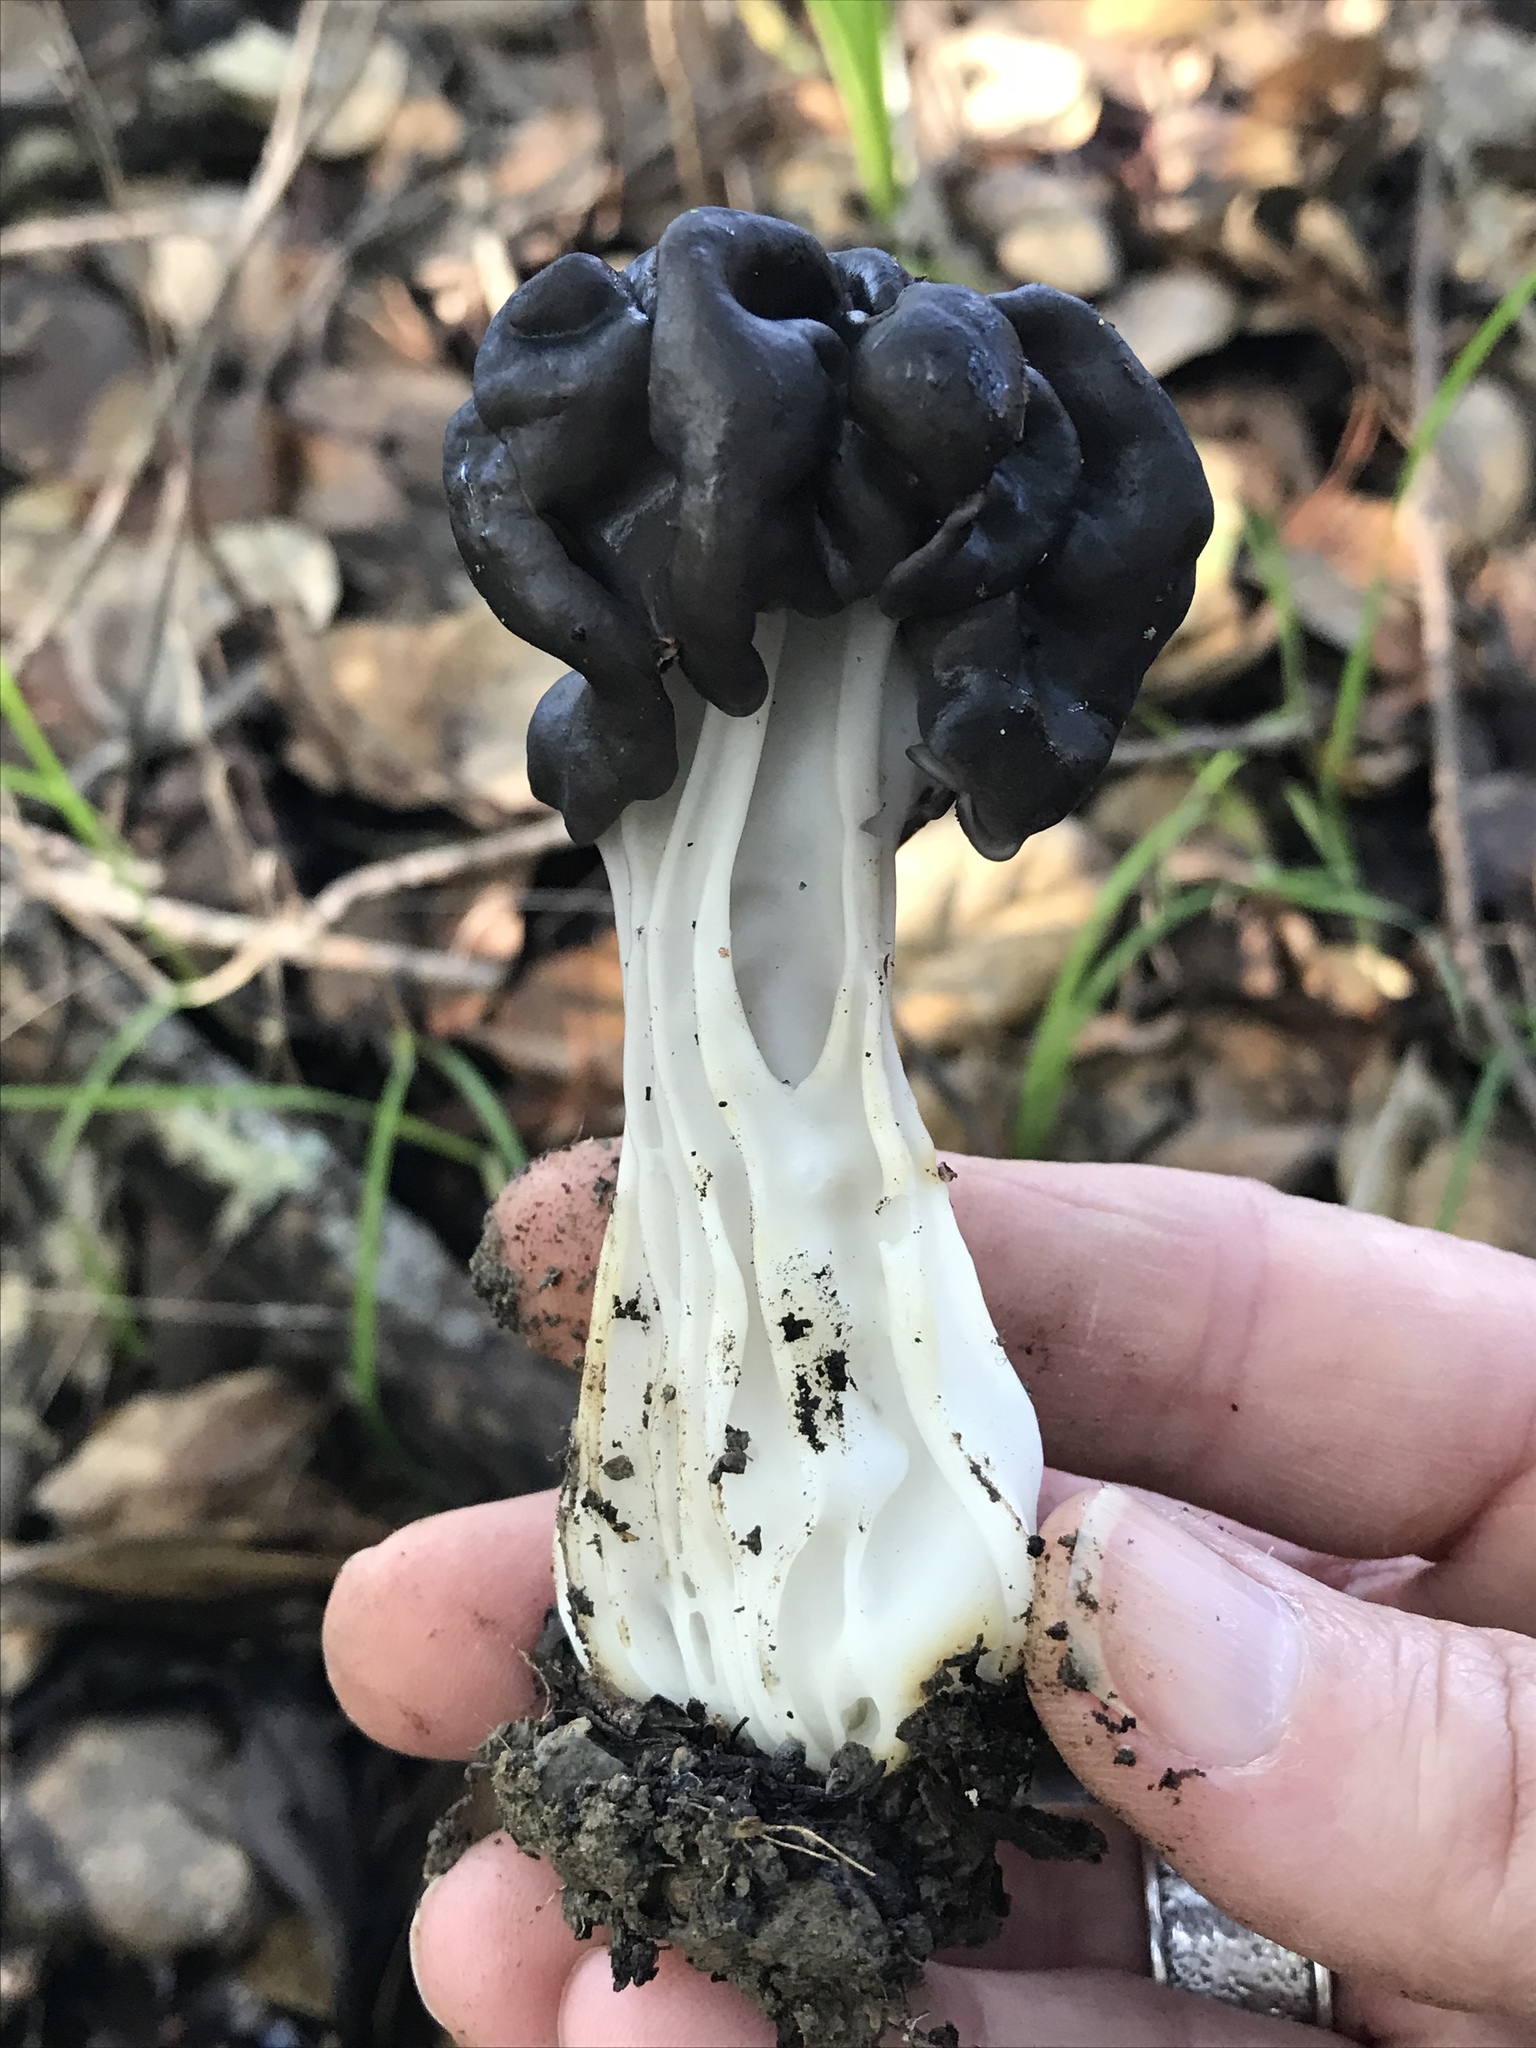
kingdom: Fungi
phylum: Ascomycota
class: Pezizomycetes
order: Pezizales
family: Helvellaceae
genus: Helvella
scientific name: Helvella dryophila
